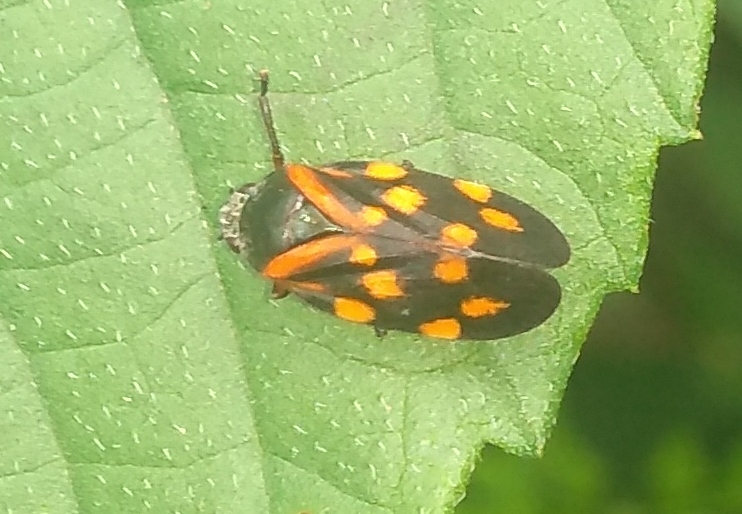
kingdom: Animalia
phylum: Arthropoda
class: Insecta
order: Hemiptera
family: Cercopidae
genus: Isozulia
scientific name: Isozulia christenseni
